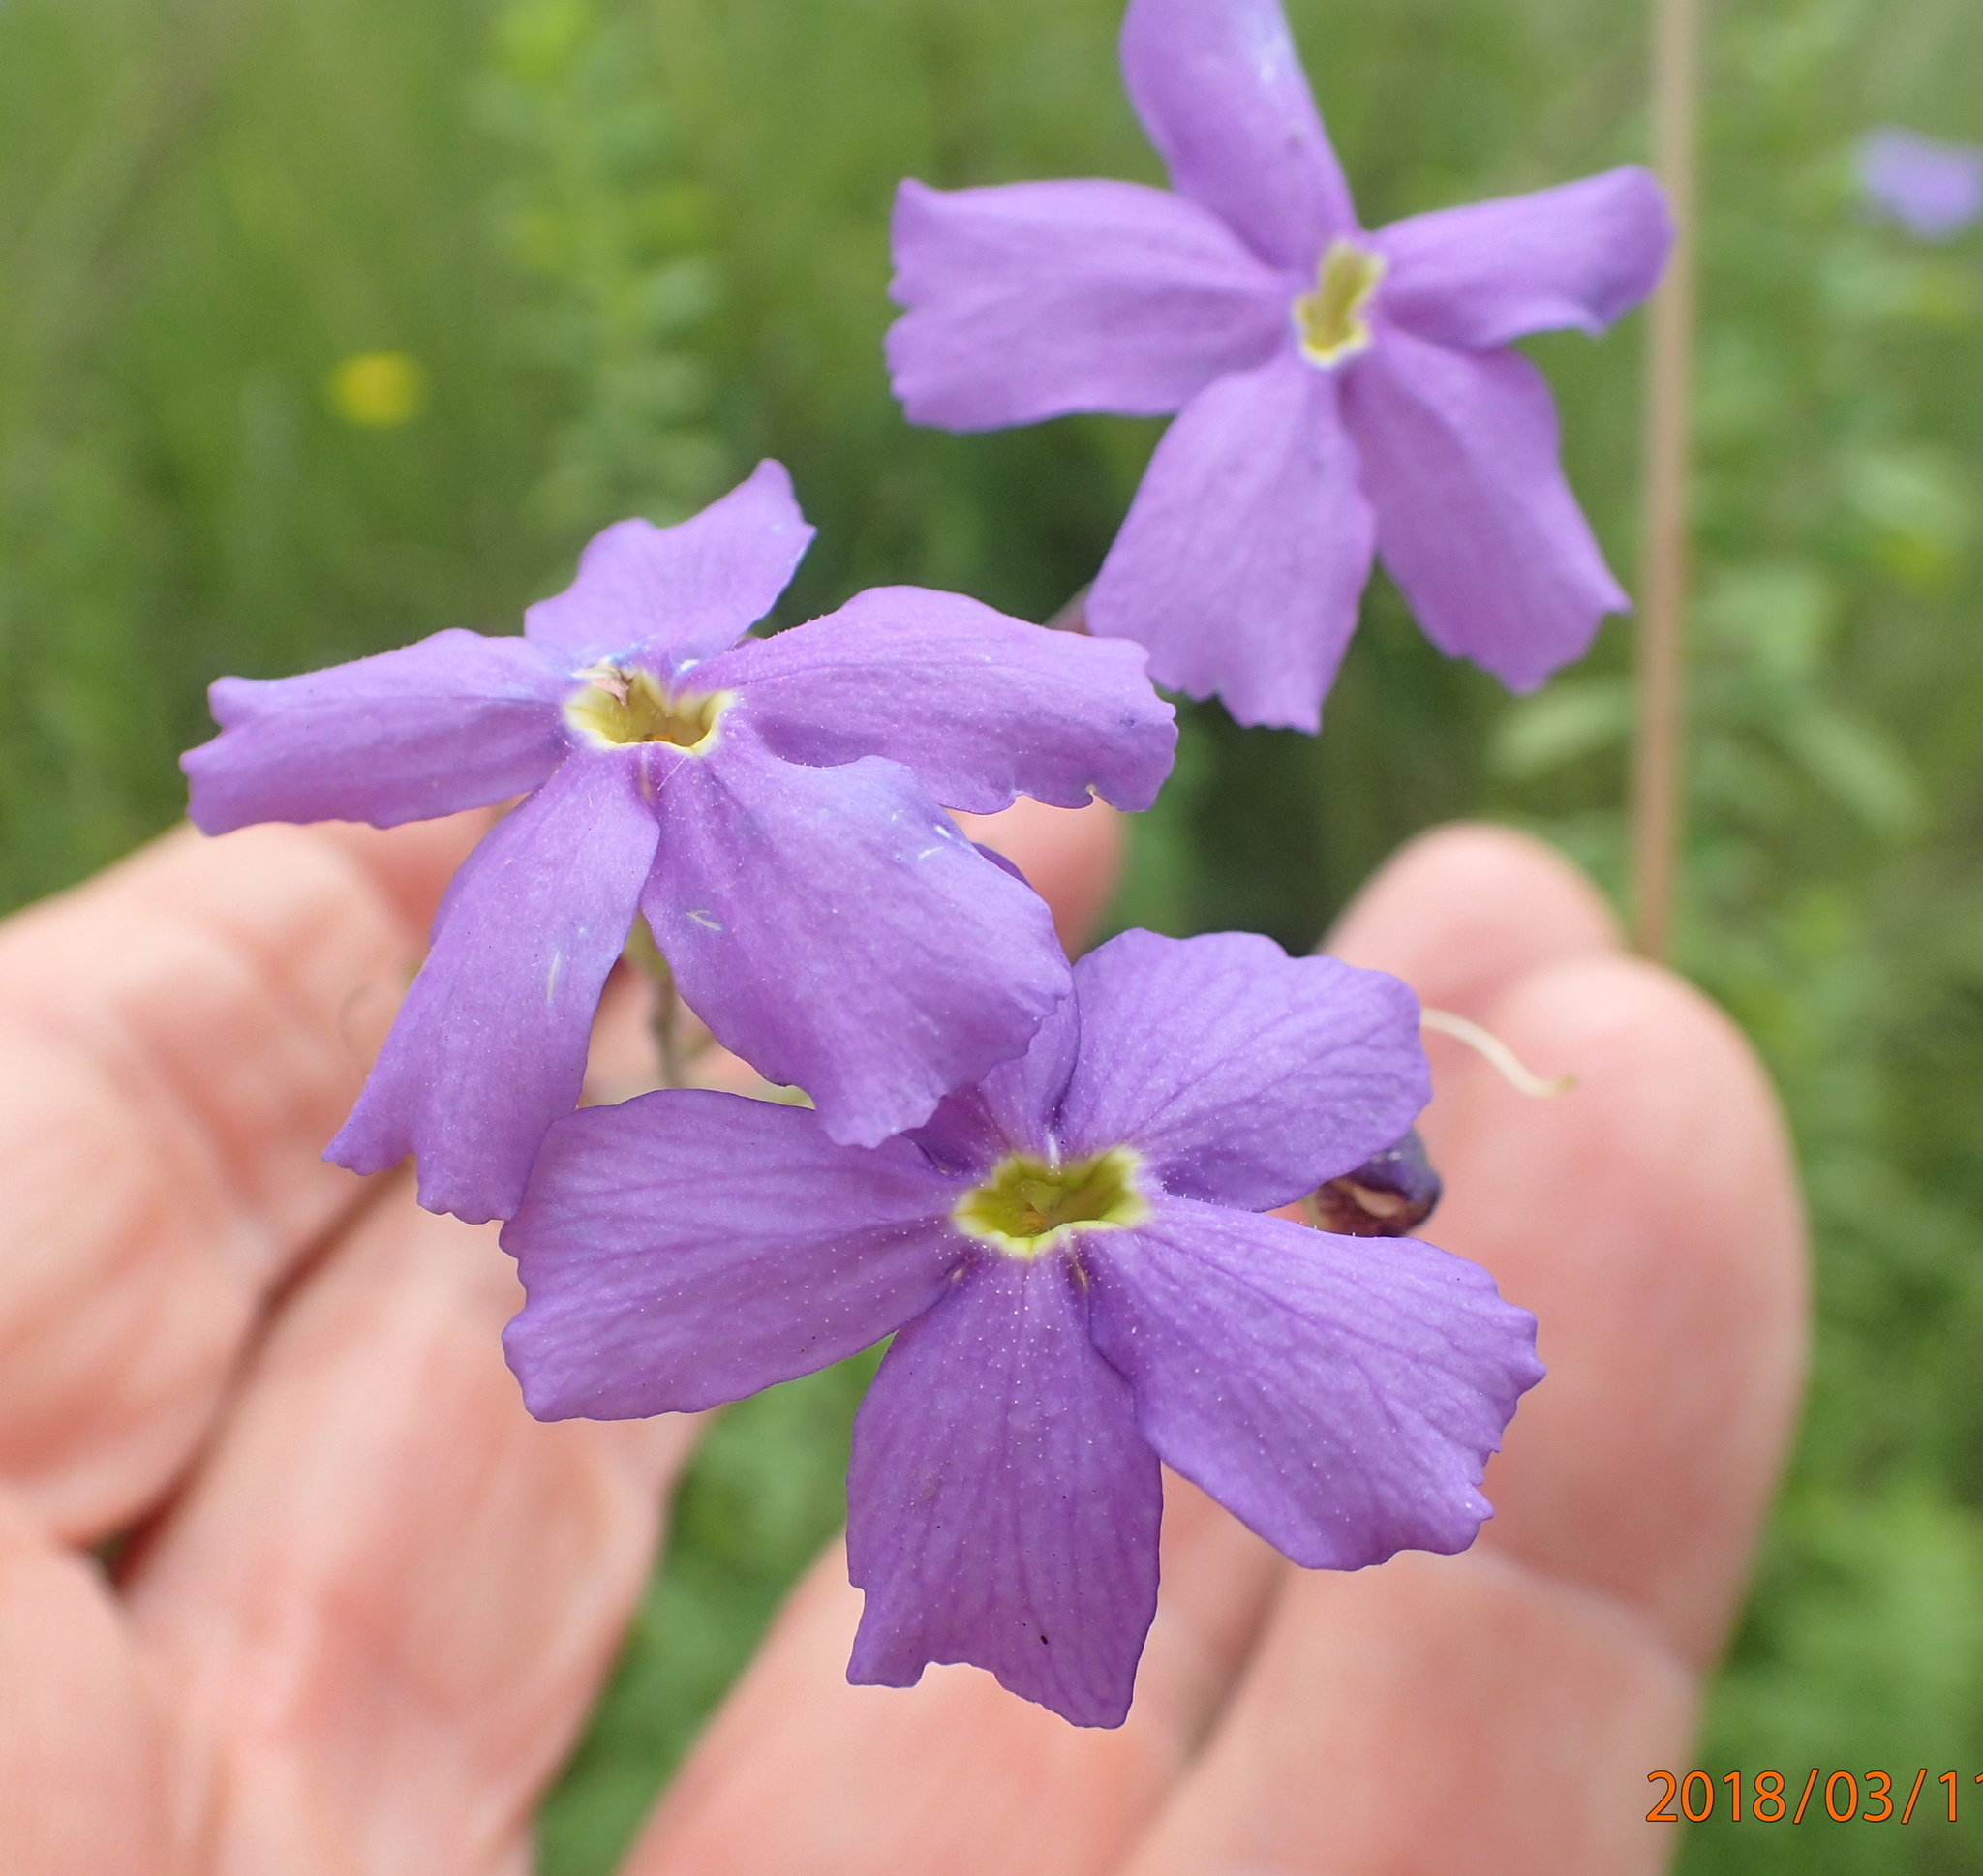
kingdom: Plantae
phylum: Tracheophyta
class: Magnoliopsida
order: Lamiales
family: Scrophulariaceae
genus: Jamesbrittenia
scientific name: Jamesbrittenia grandiflora
